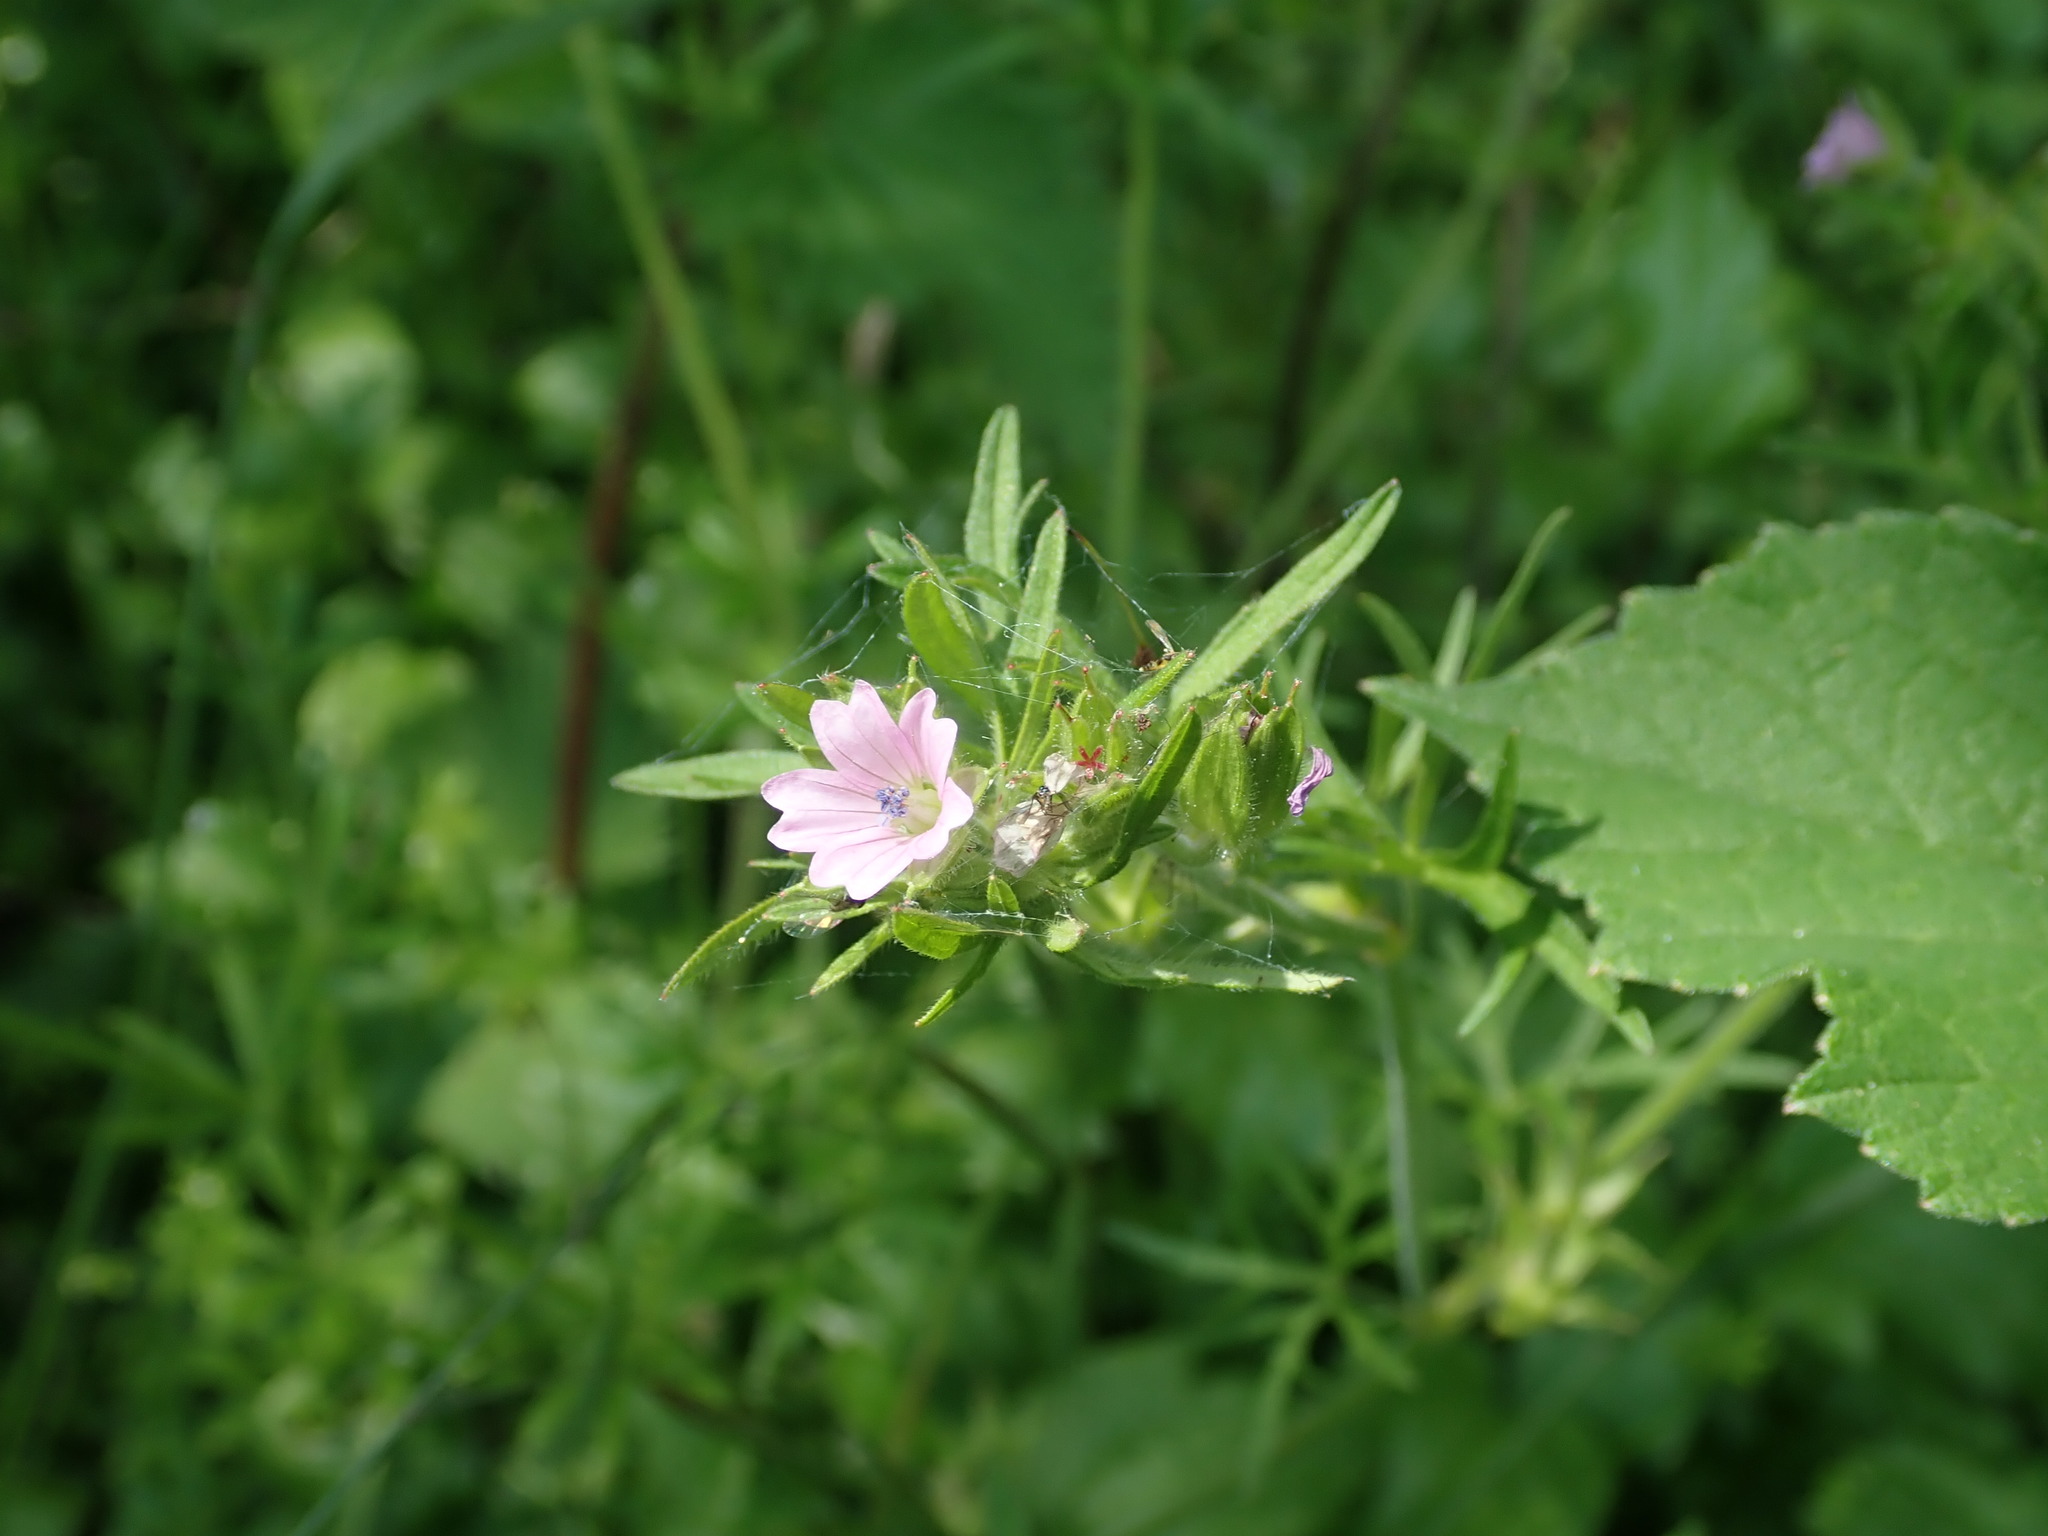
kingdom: Plantae
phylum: Tracheophyta
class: Magnoliopsida
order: Geraniales
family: Geraniaceae
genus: Geranium
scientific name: Geranium dissectum
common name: Cut-leaved crane's-bill
